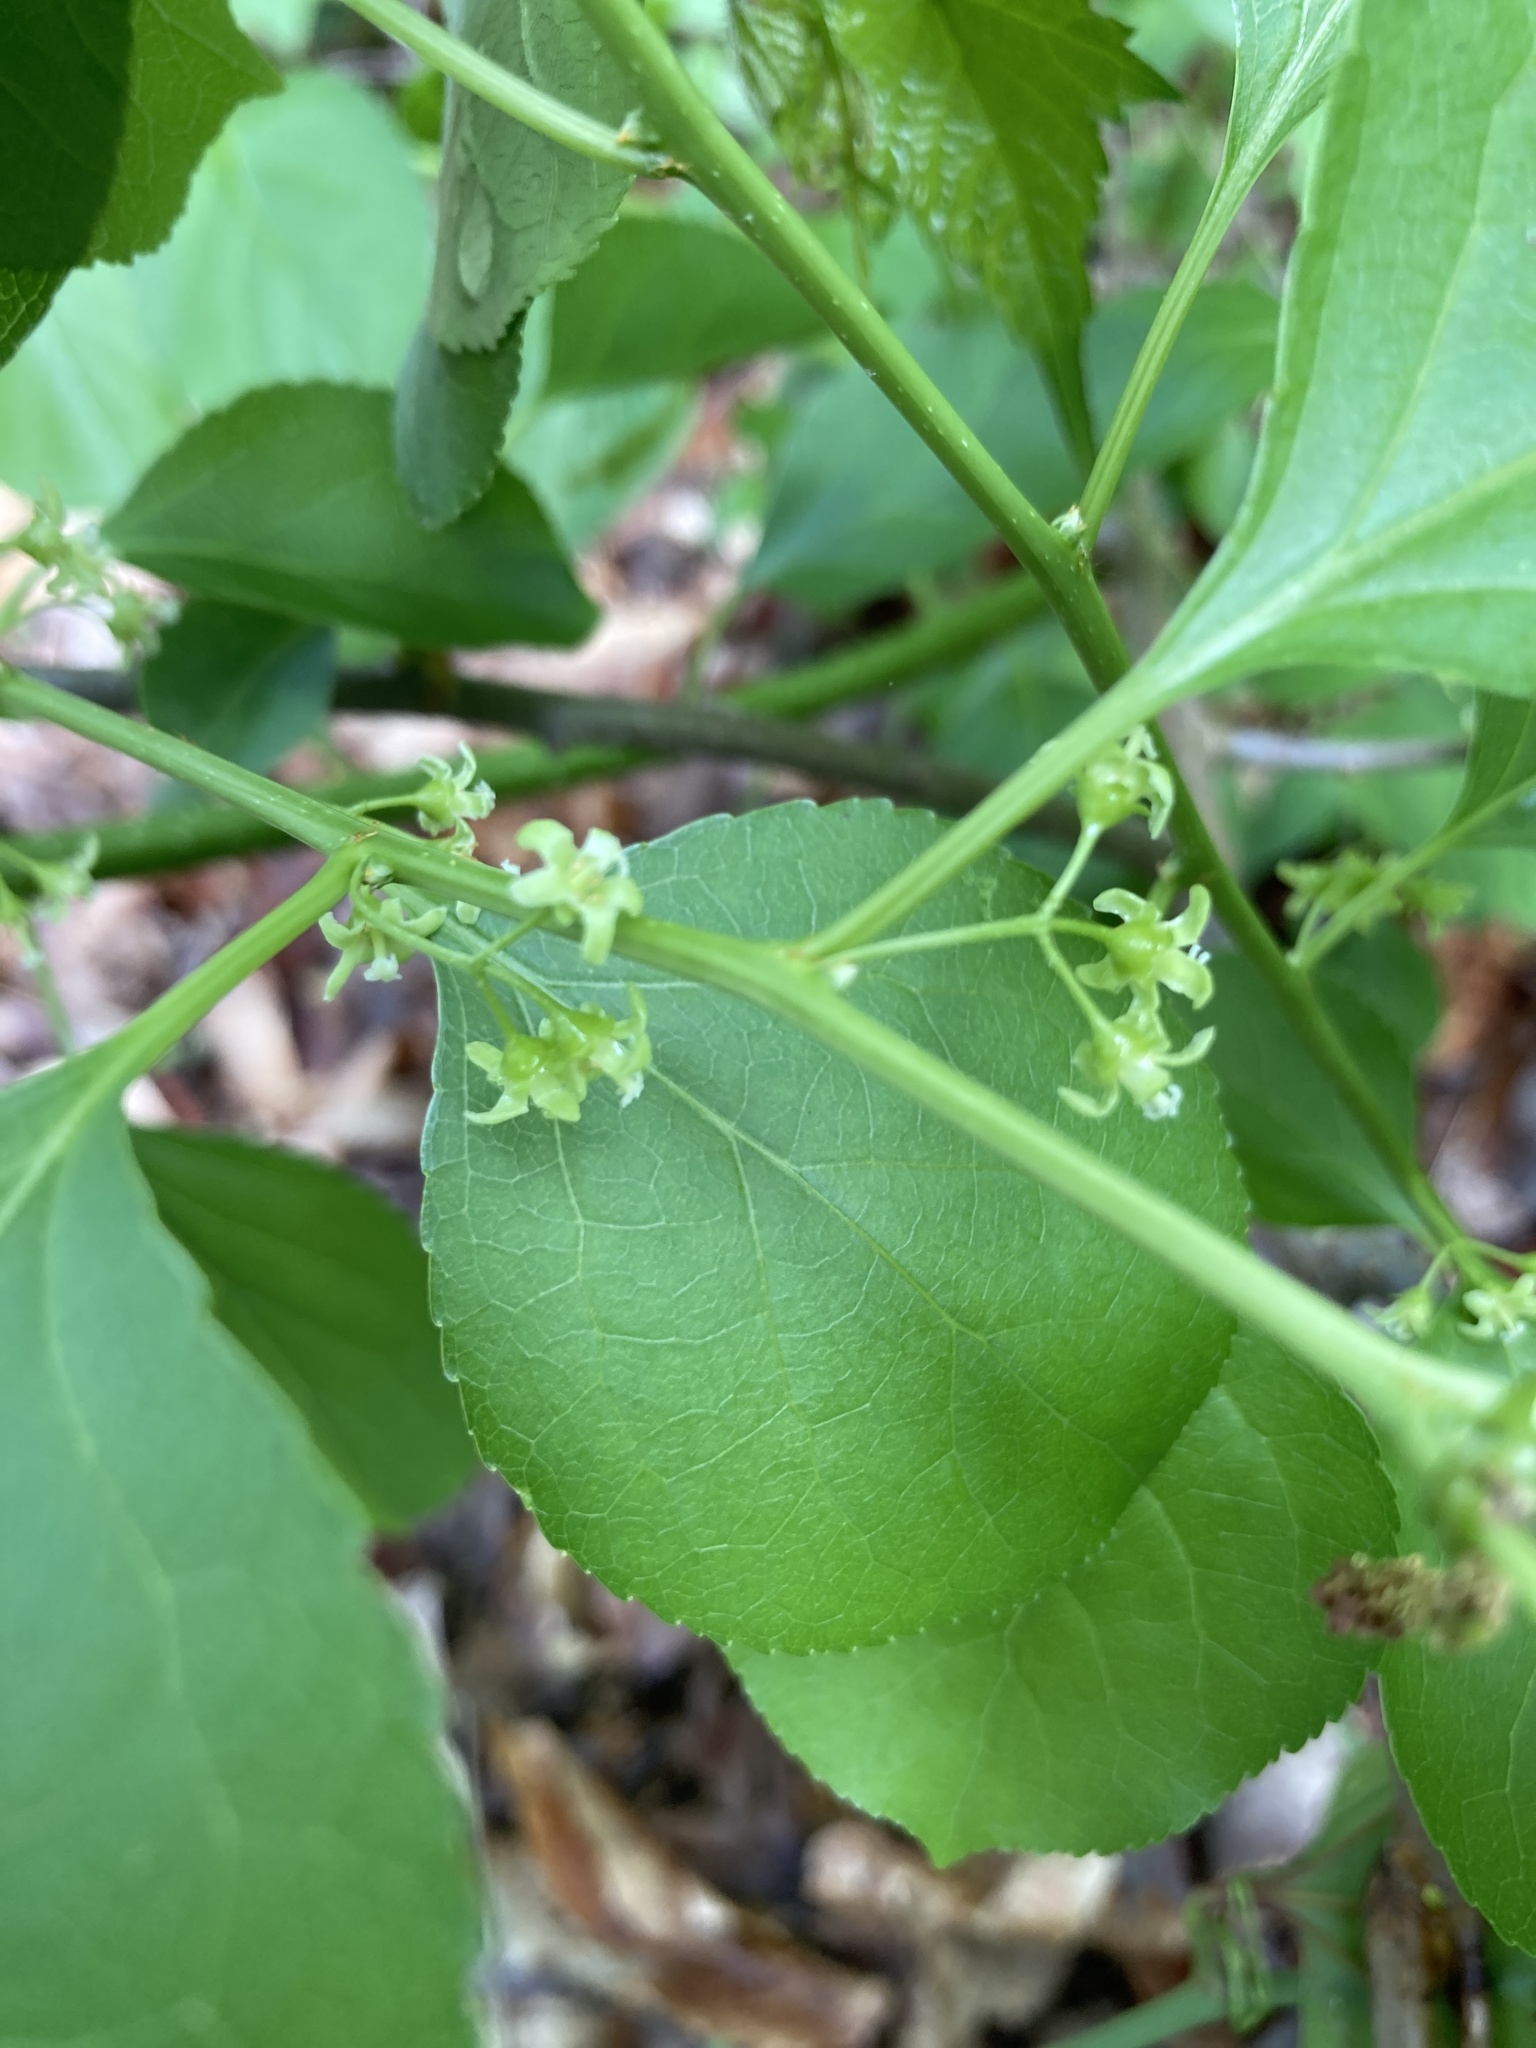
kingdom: Plantae
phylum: Tracheophyta
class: Magnoliopsida
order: Celastrales
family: Celastraceae
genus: Celastrus
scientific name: Celastrus orbiculatus
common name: Oriental bittersweet
